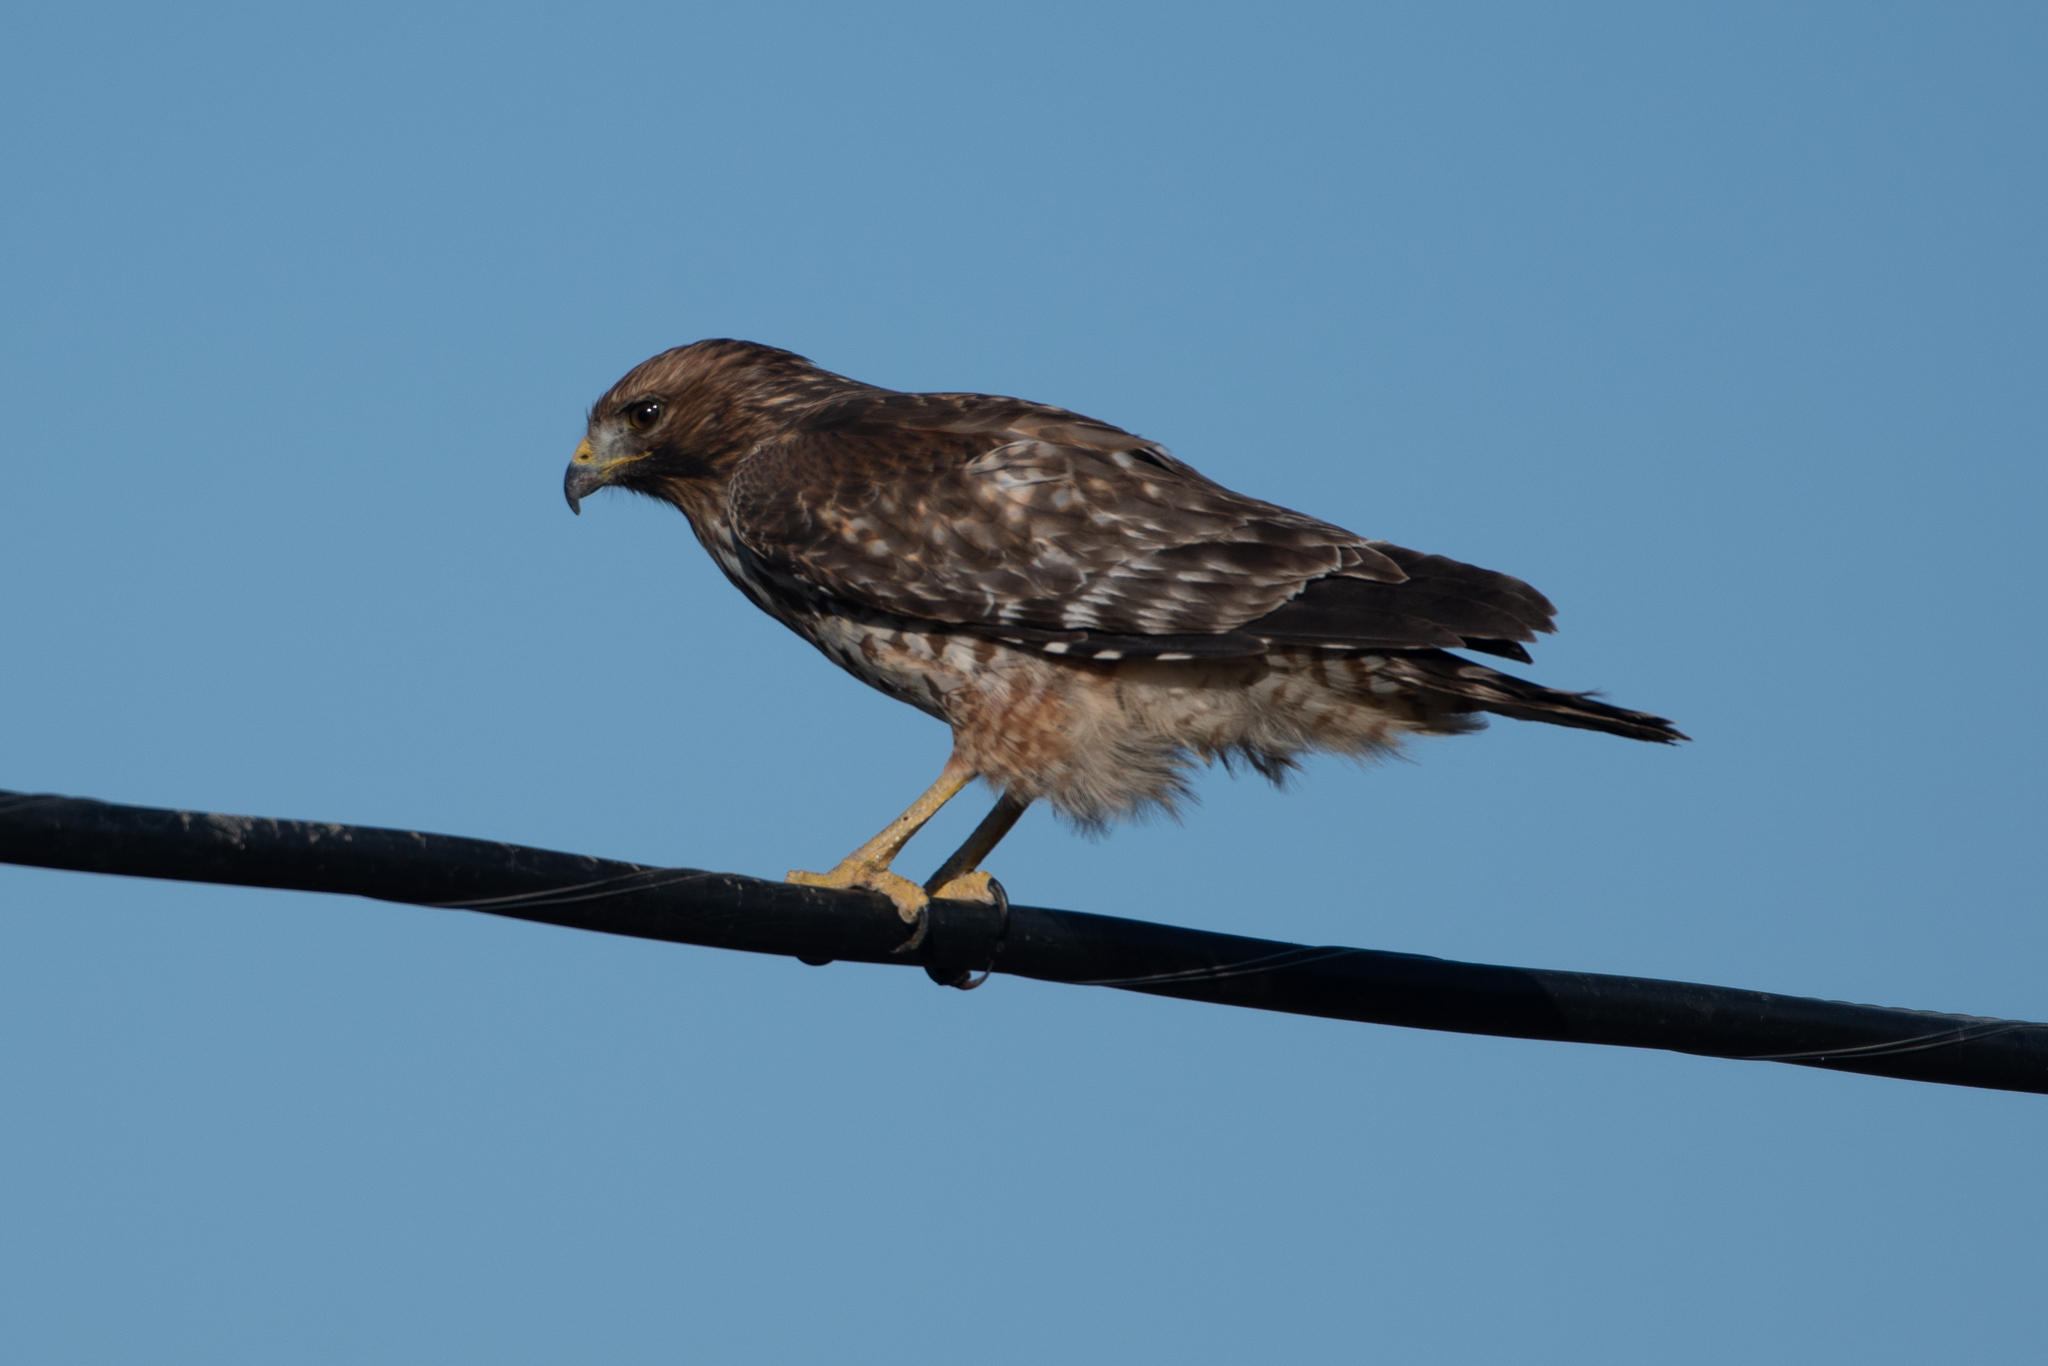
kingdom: Animalia
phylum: Chordata
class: Aves
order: Accipitriformes
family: Accipitridae
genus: Buteo
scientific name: Buteo lineatus
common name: Red-shouldered hawk
